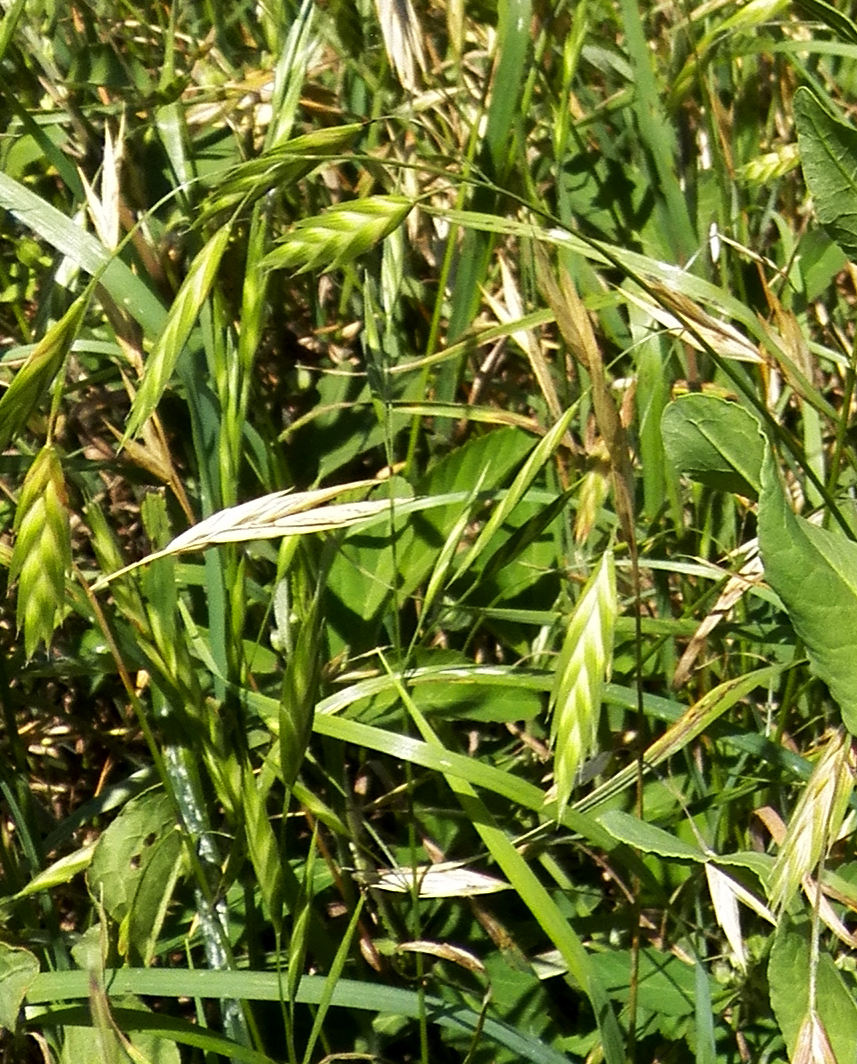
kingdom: Plantae
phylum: Tracheophyta
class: Liliopsida
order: Poales
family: Poaceae
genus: Bromus
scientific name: Bromus catharticus
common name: Rescuegrass
